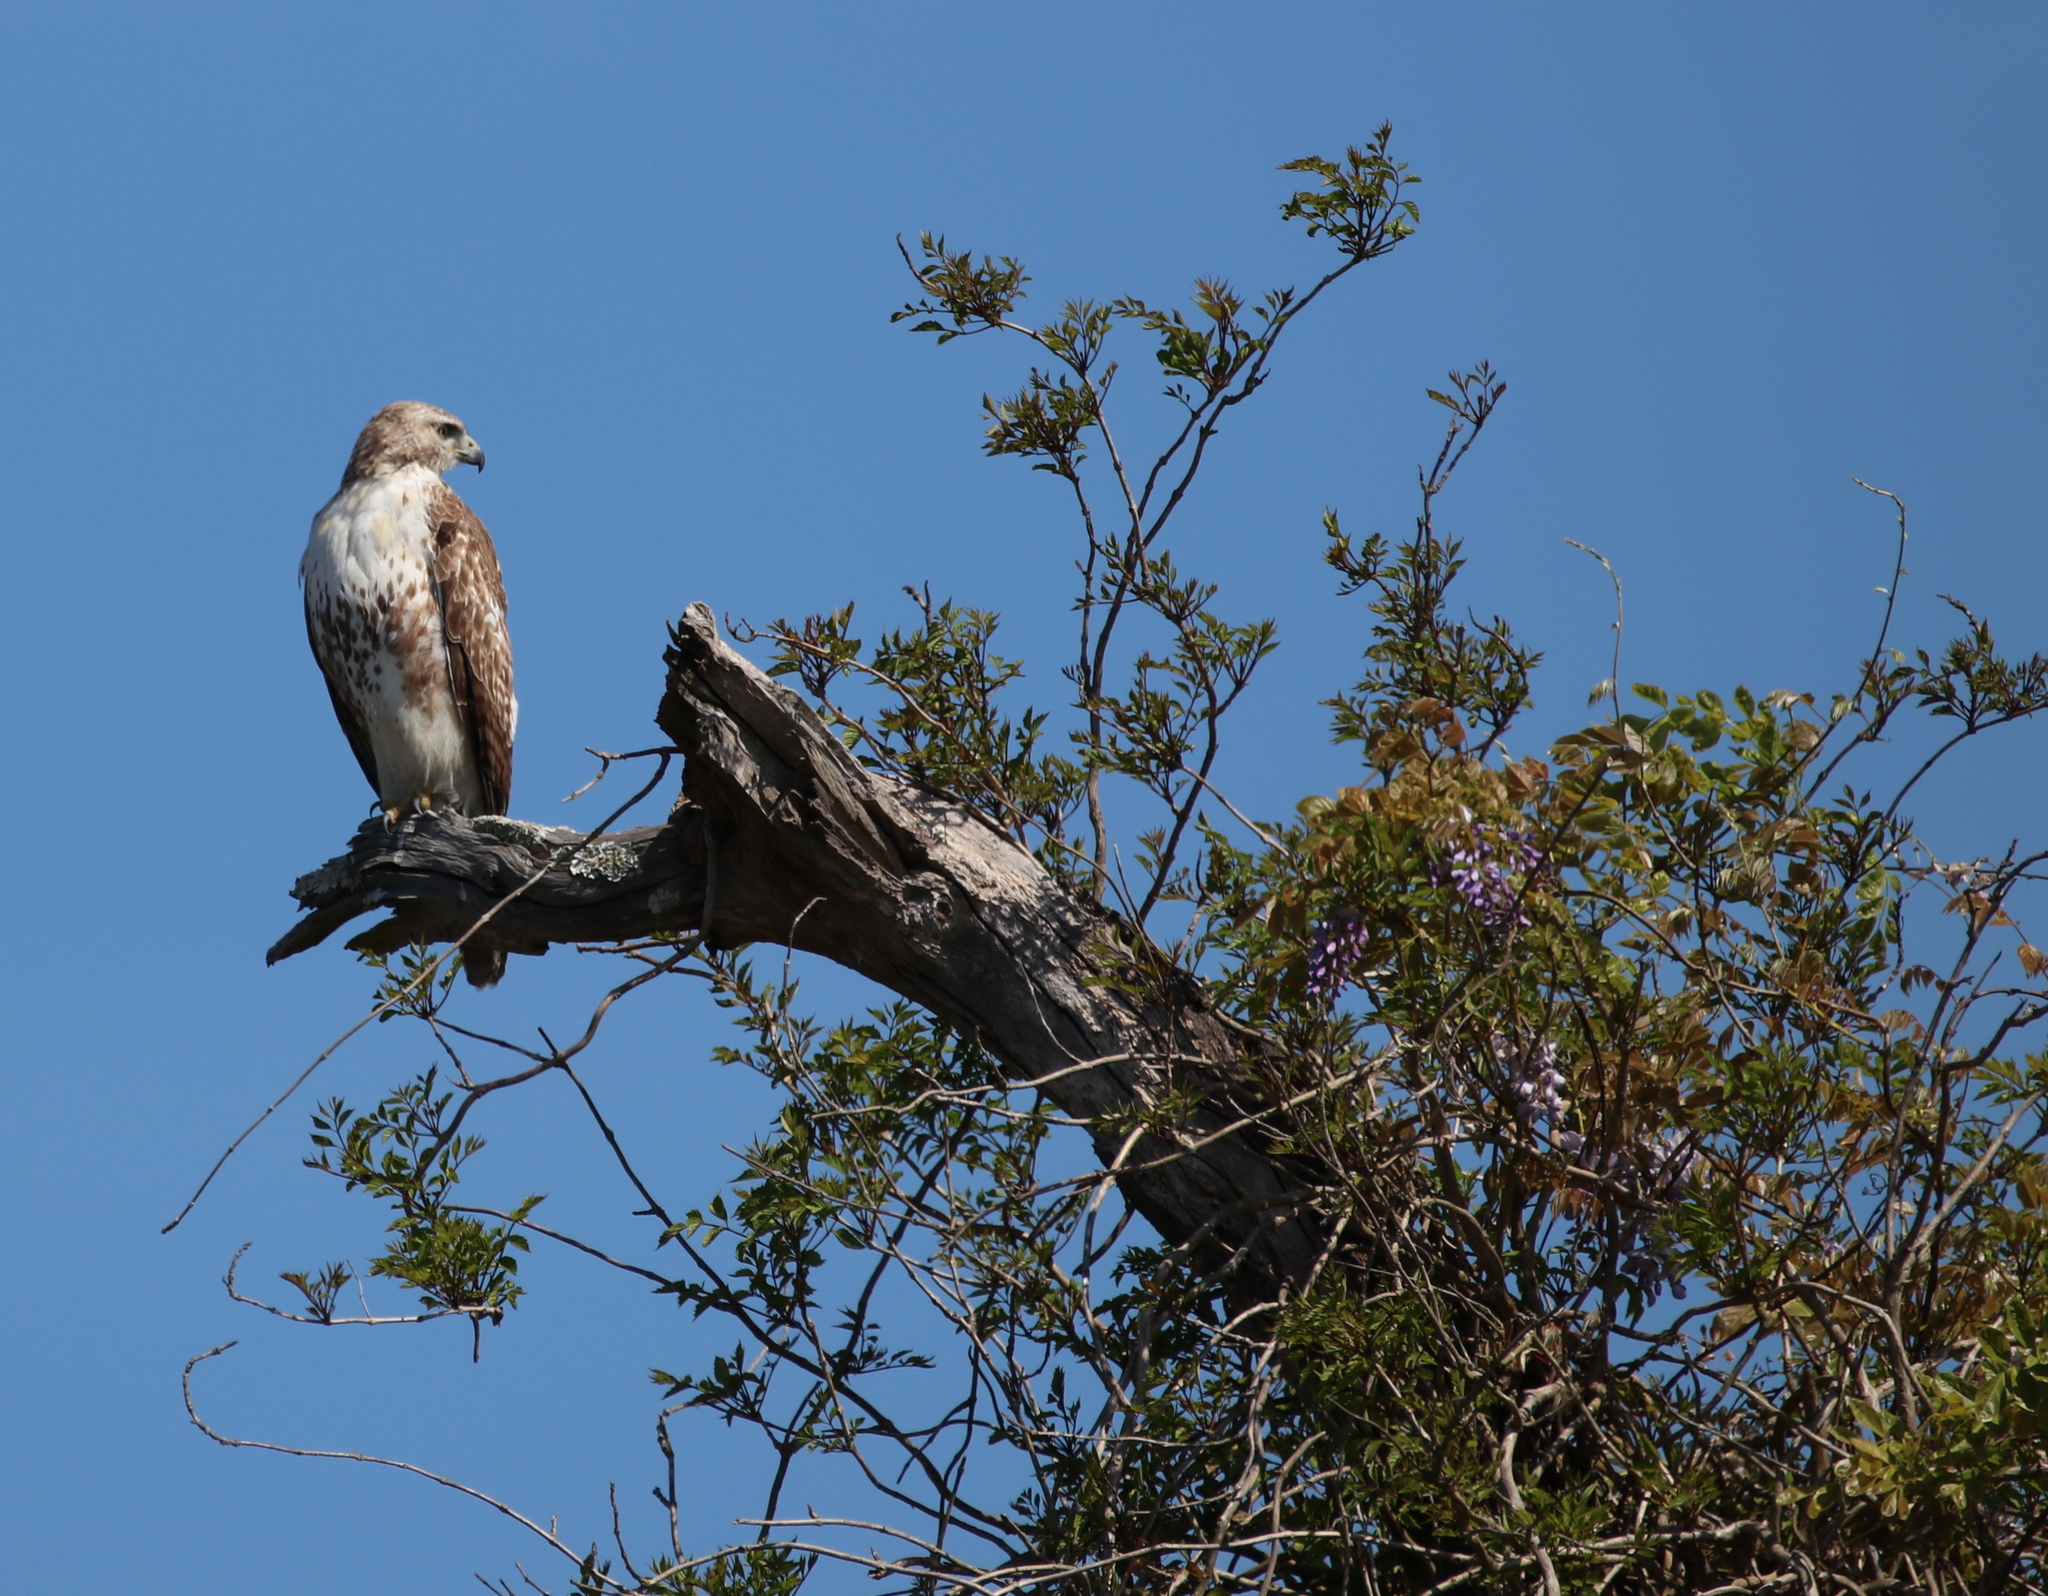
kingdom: Animalia
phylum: Chordata
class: Aves
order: Accipitriformes
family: Accipitridae
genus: Buteo
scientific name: Buteo jamaicensis
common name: Red-tailed hawk
